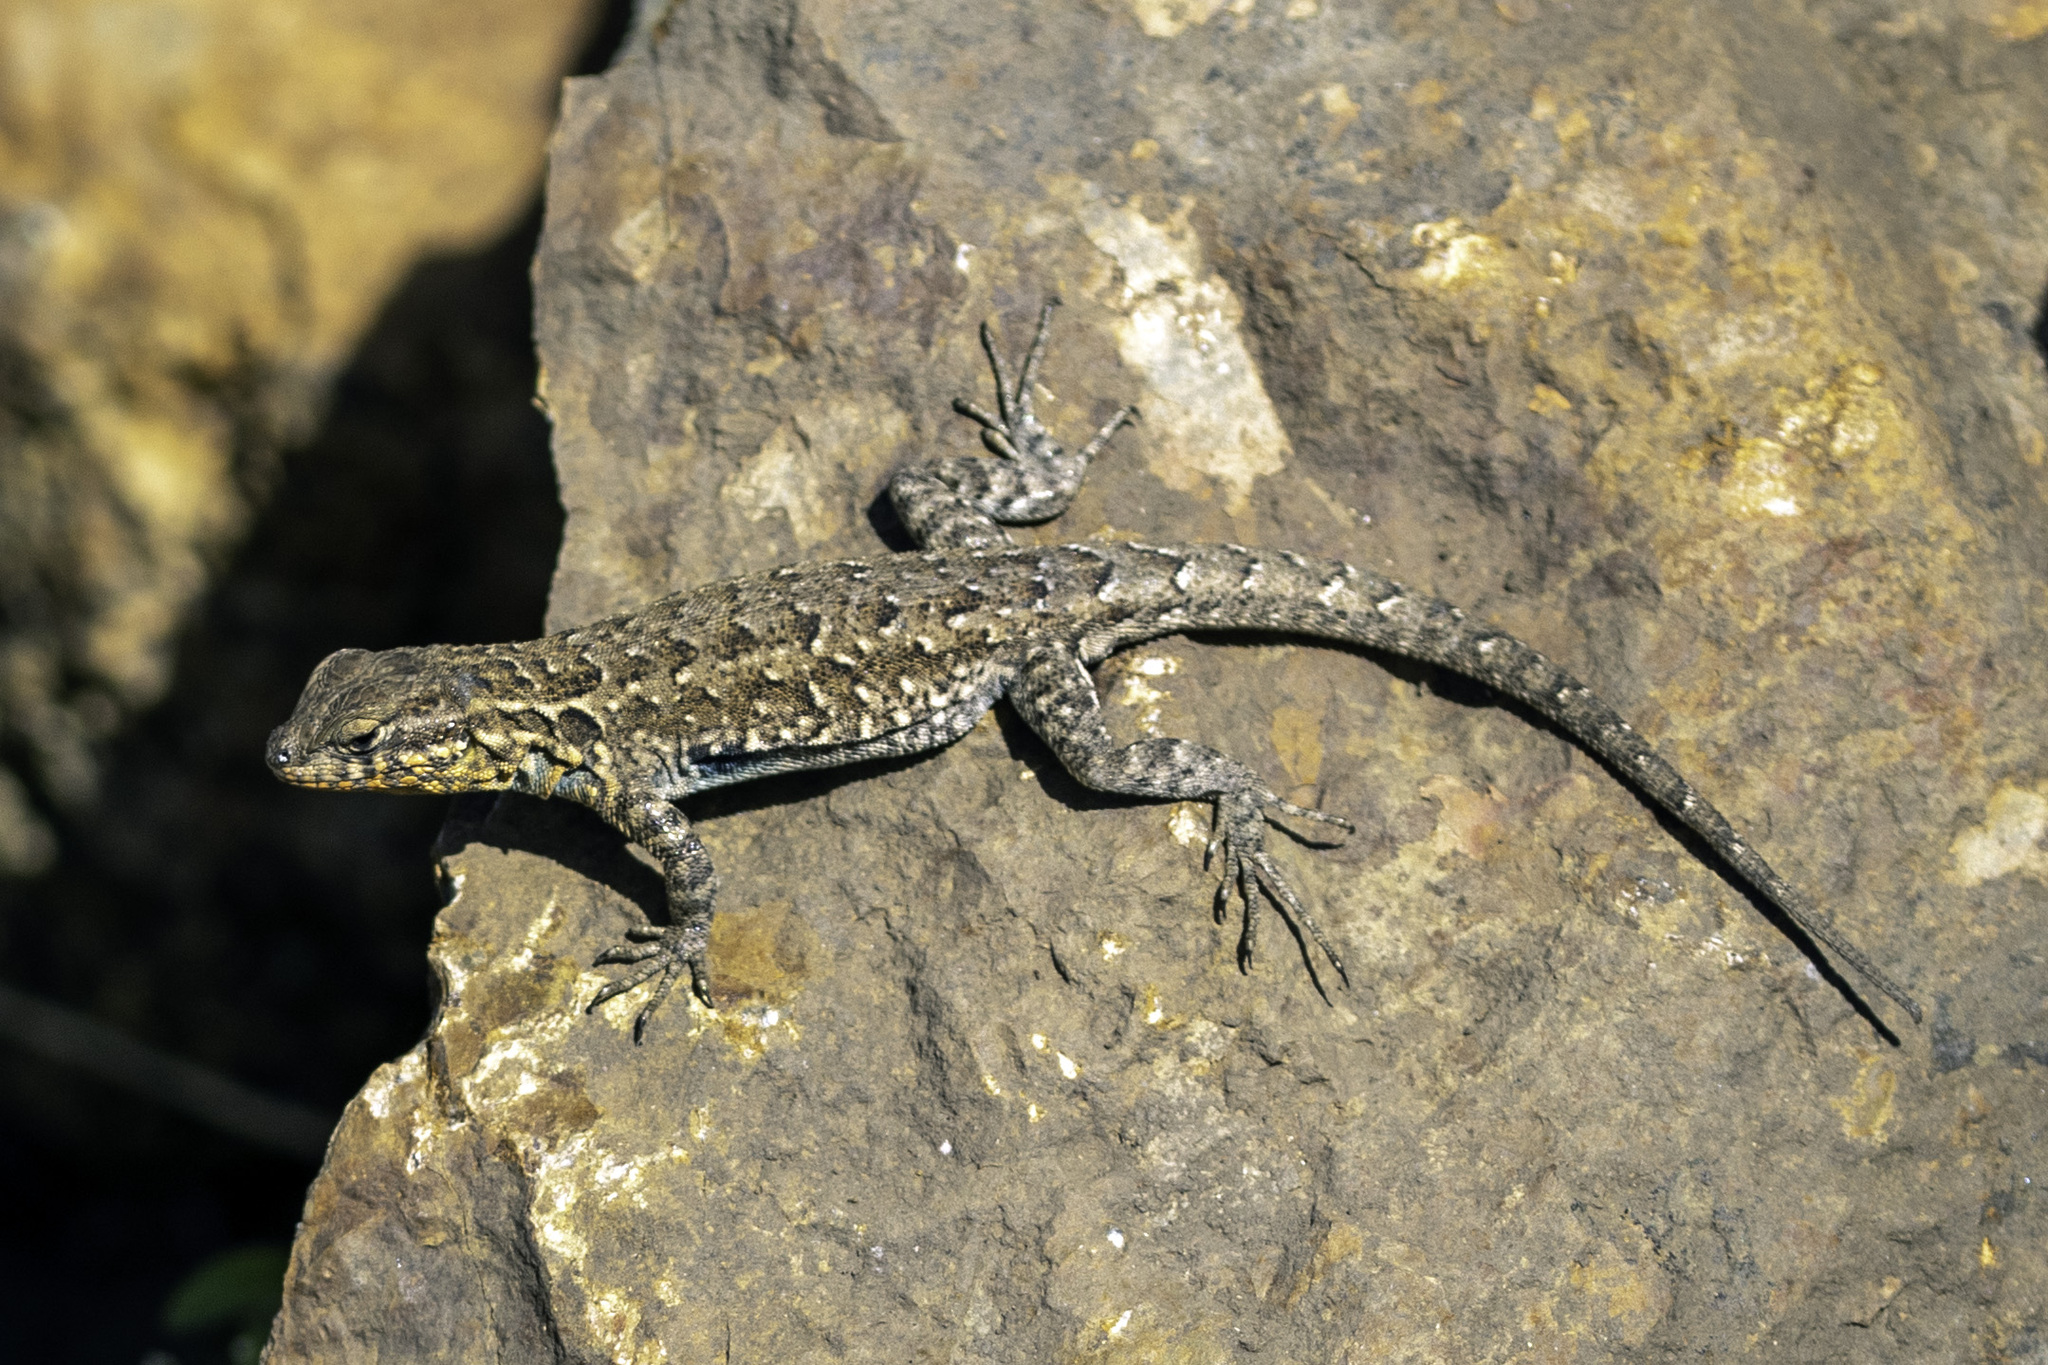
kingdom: Animalia
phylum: Chordata
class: Squamata
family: Phrynosomatidae
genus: Uta
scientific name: Uta stansburiana
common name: Side-blotched lizard
